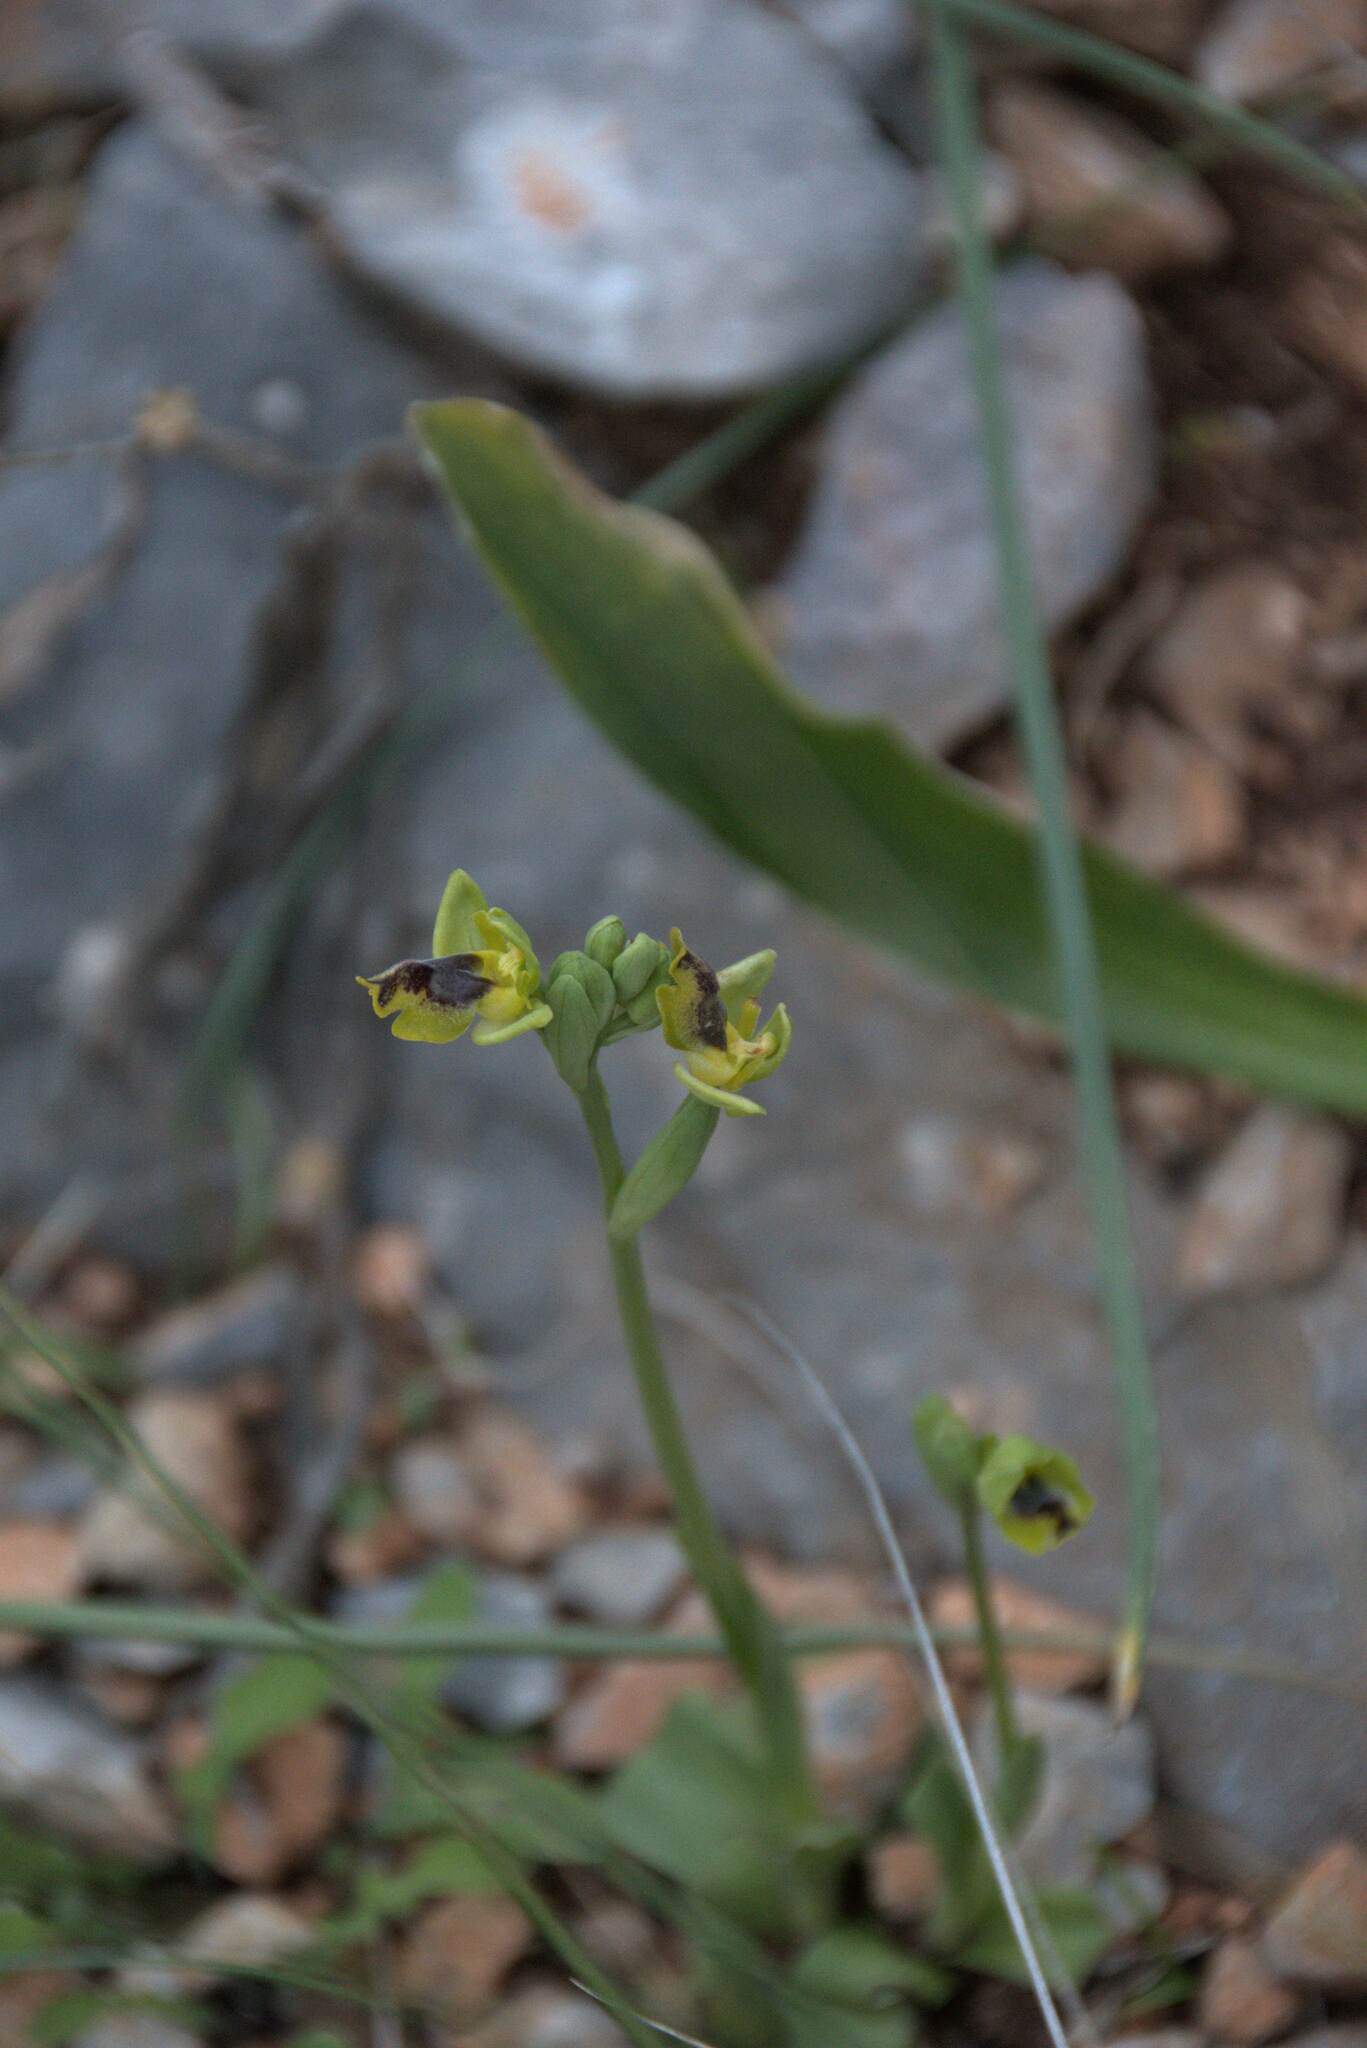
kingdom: Plantae
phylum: Tracheophyta
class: Liliopsida
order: Asparagales
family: Orchidaceae
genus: Ophrys
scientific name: Ophrys lutea
